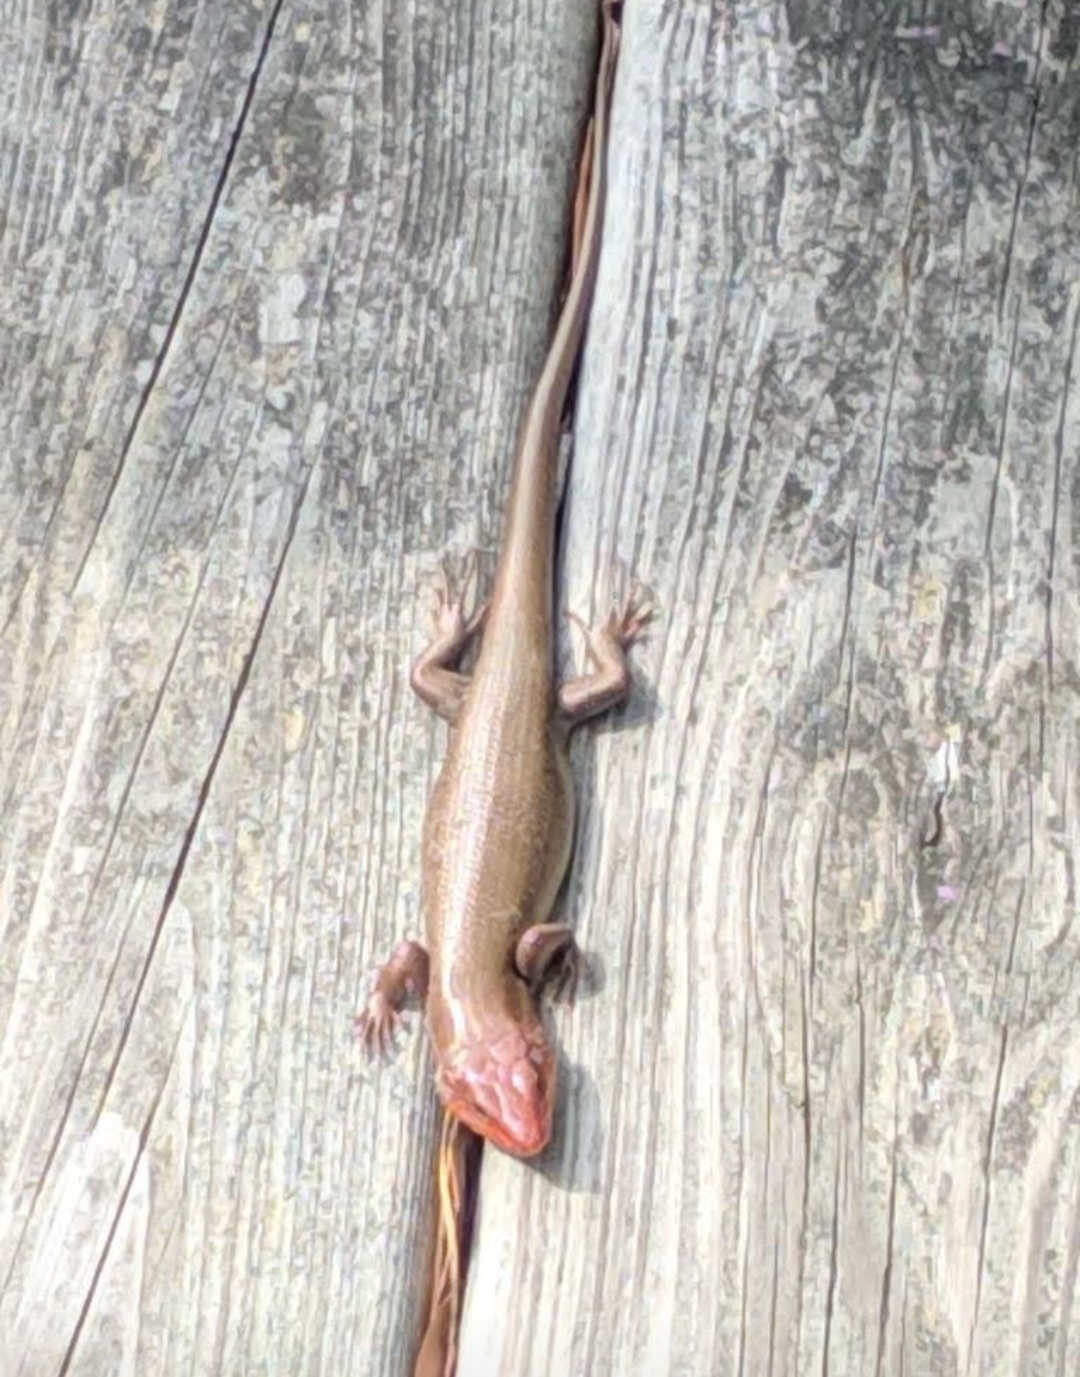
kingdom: Animalia
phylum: Chordata
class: Squamata
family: Scincidae
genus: Plestiodon
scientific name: Plestiodon laticeps
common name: Broadhead skink
